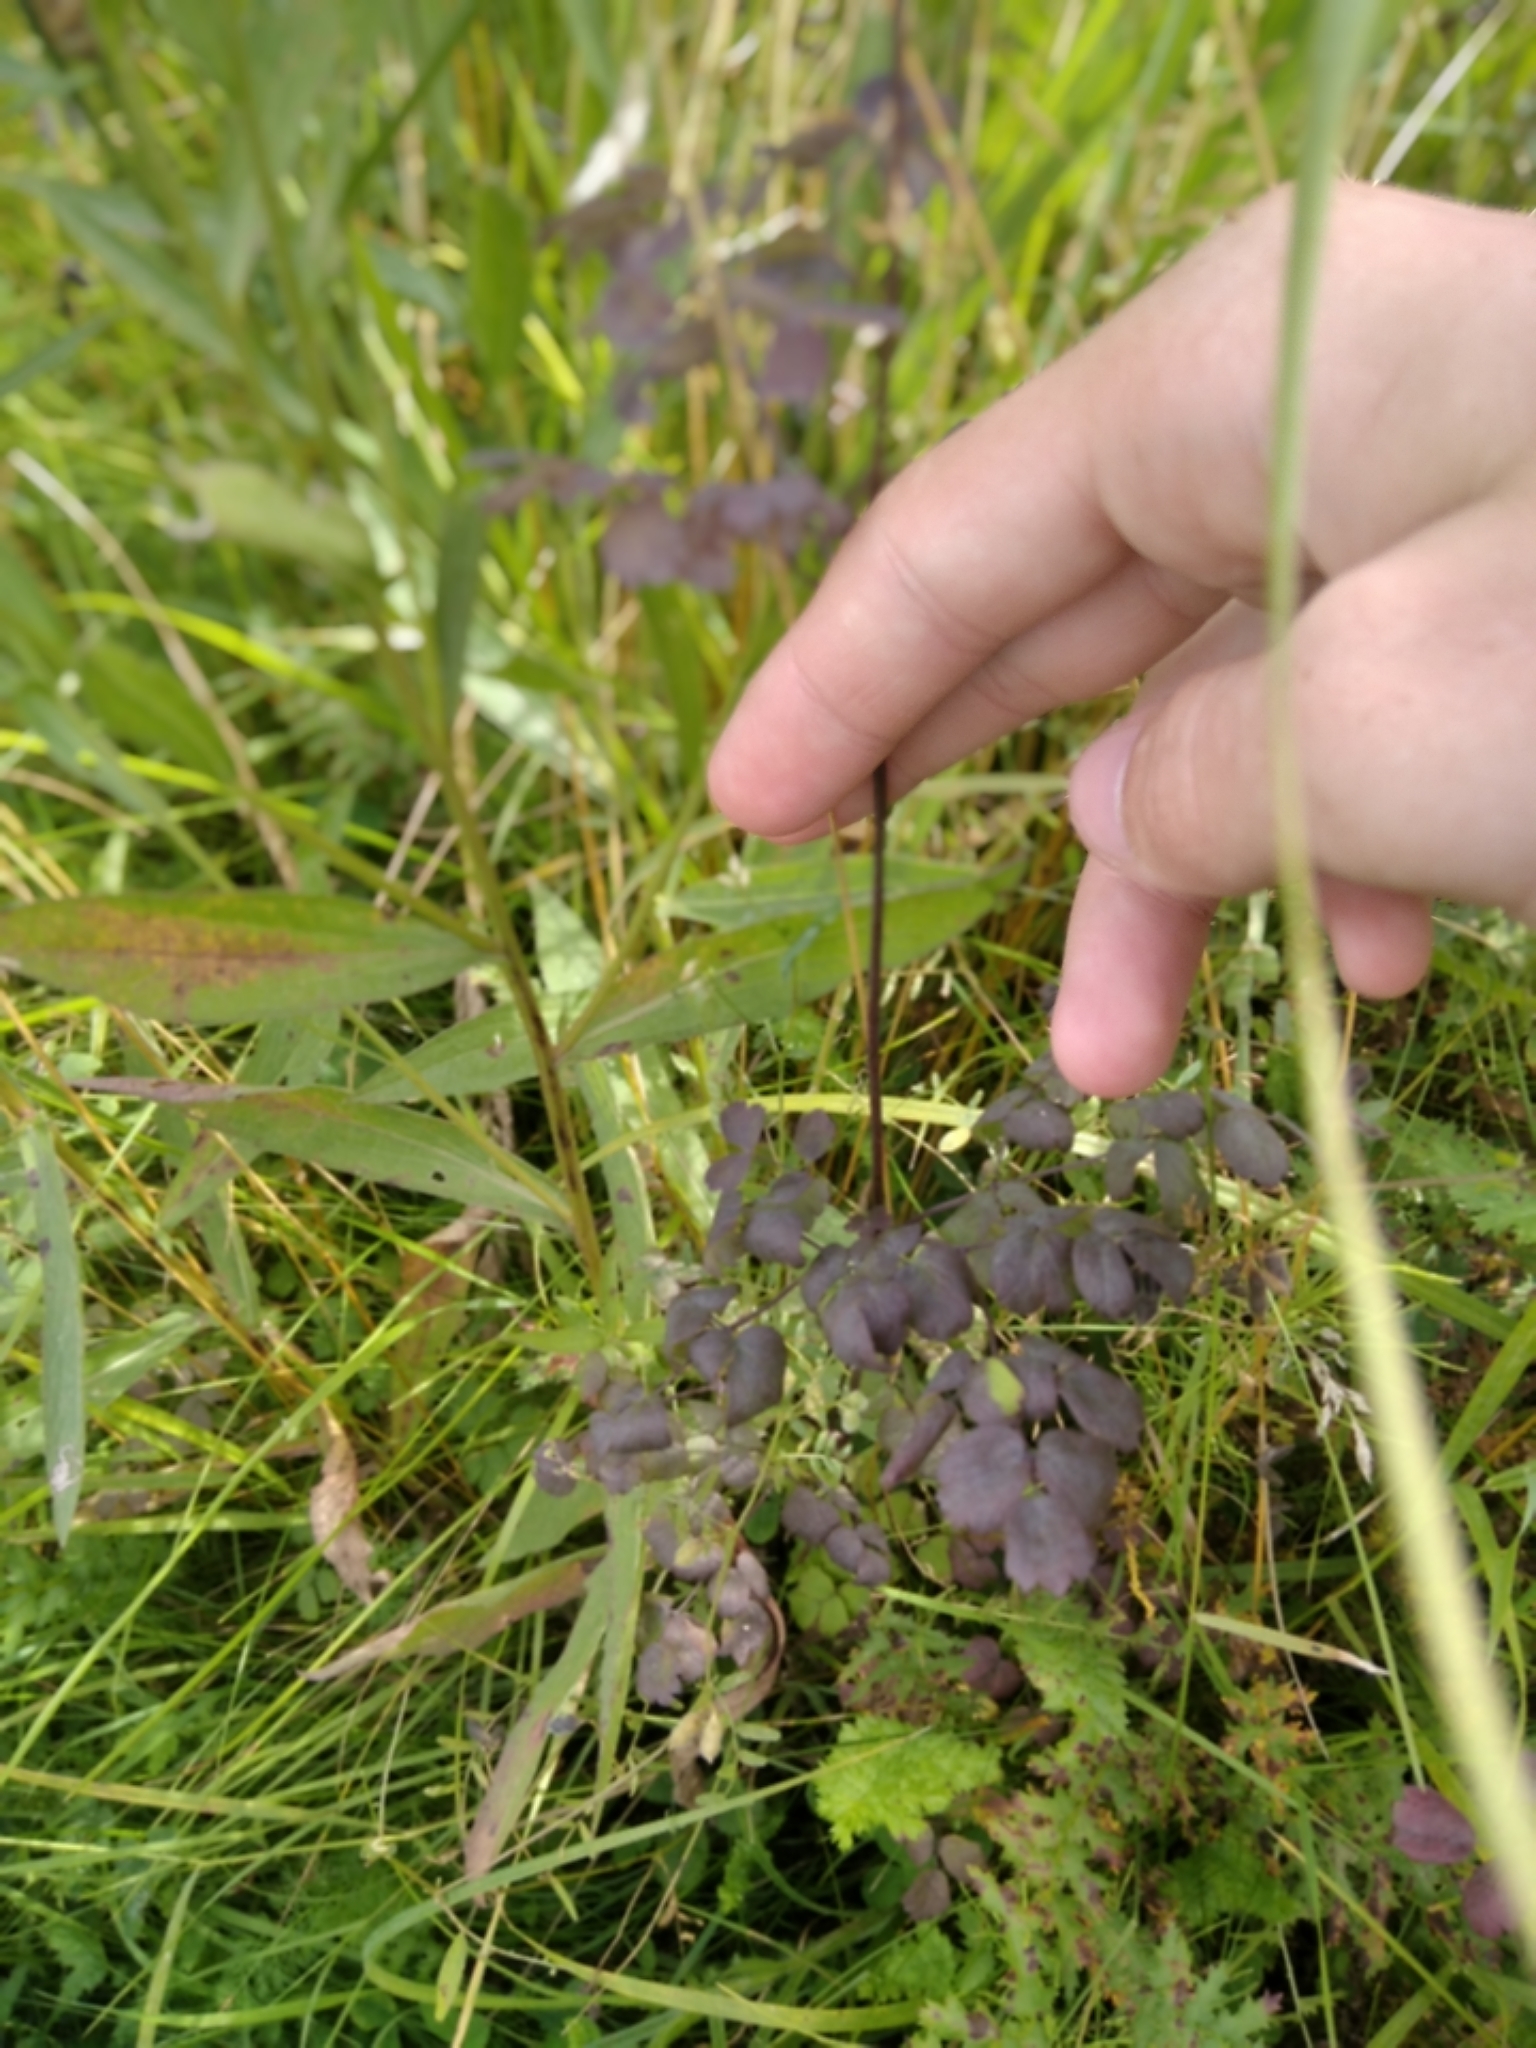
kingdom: Plantae
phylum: Tracheophyta
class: Magnoliopsida
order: Ranunculales
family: Ranunculaceae
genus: Thalictrum
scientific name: Thalictrum minus
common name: Lesser meadow-rue
